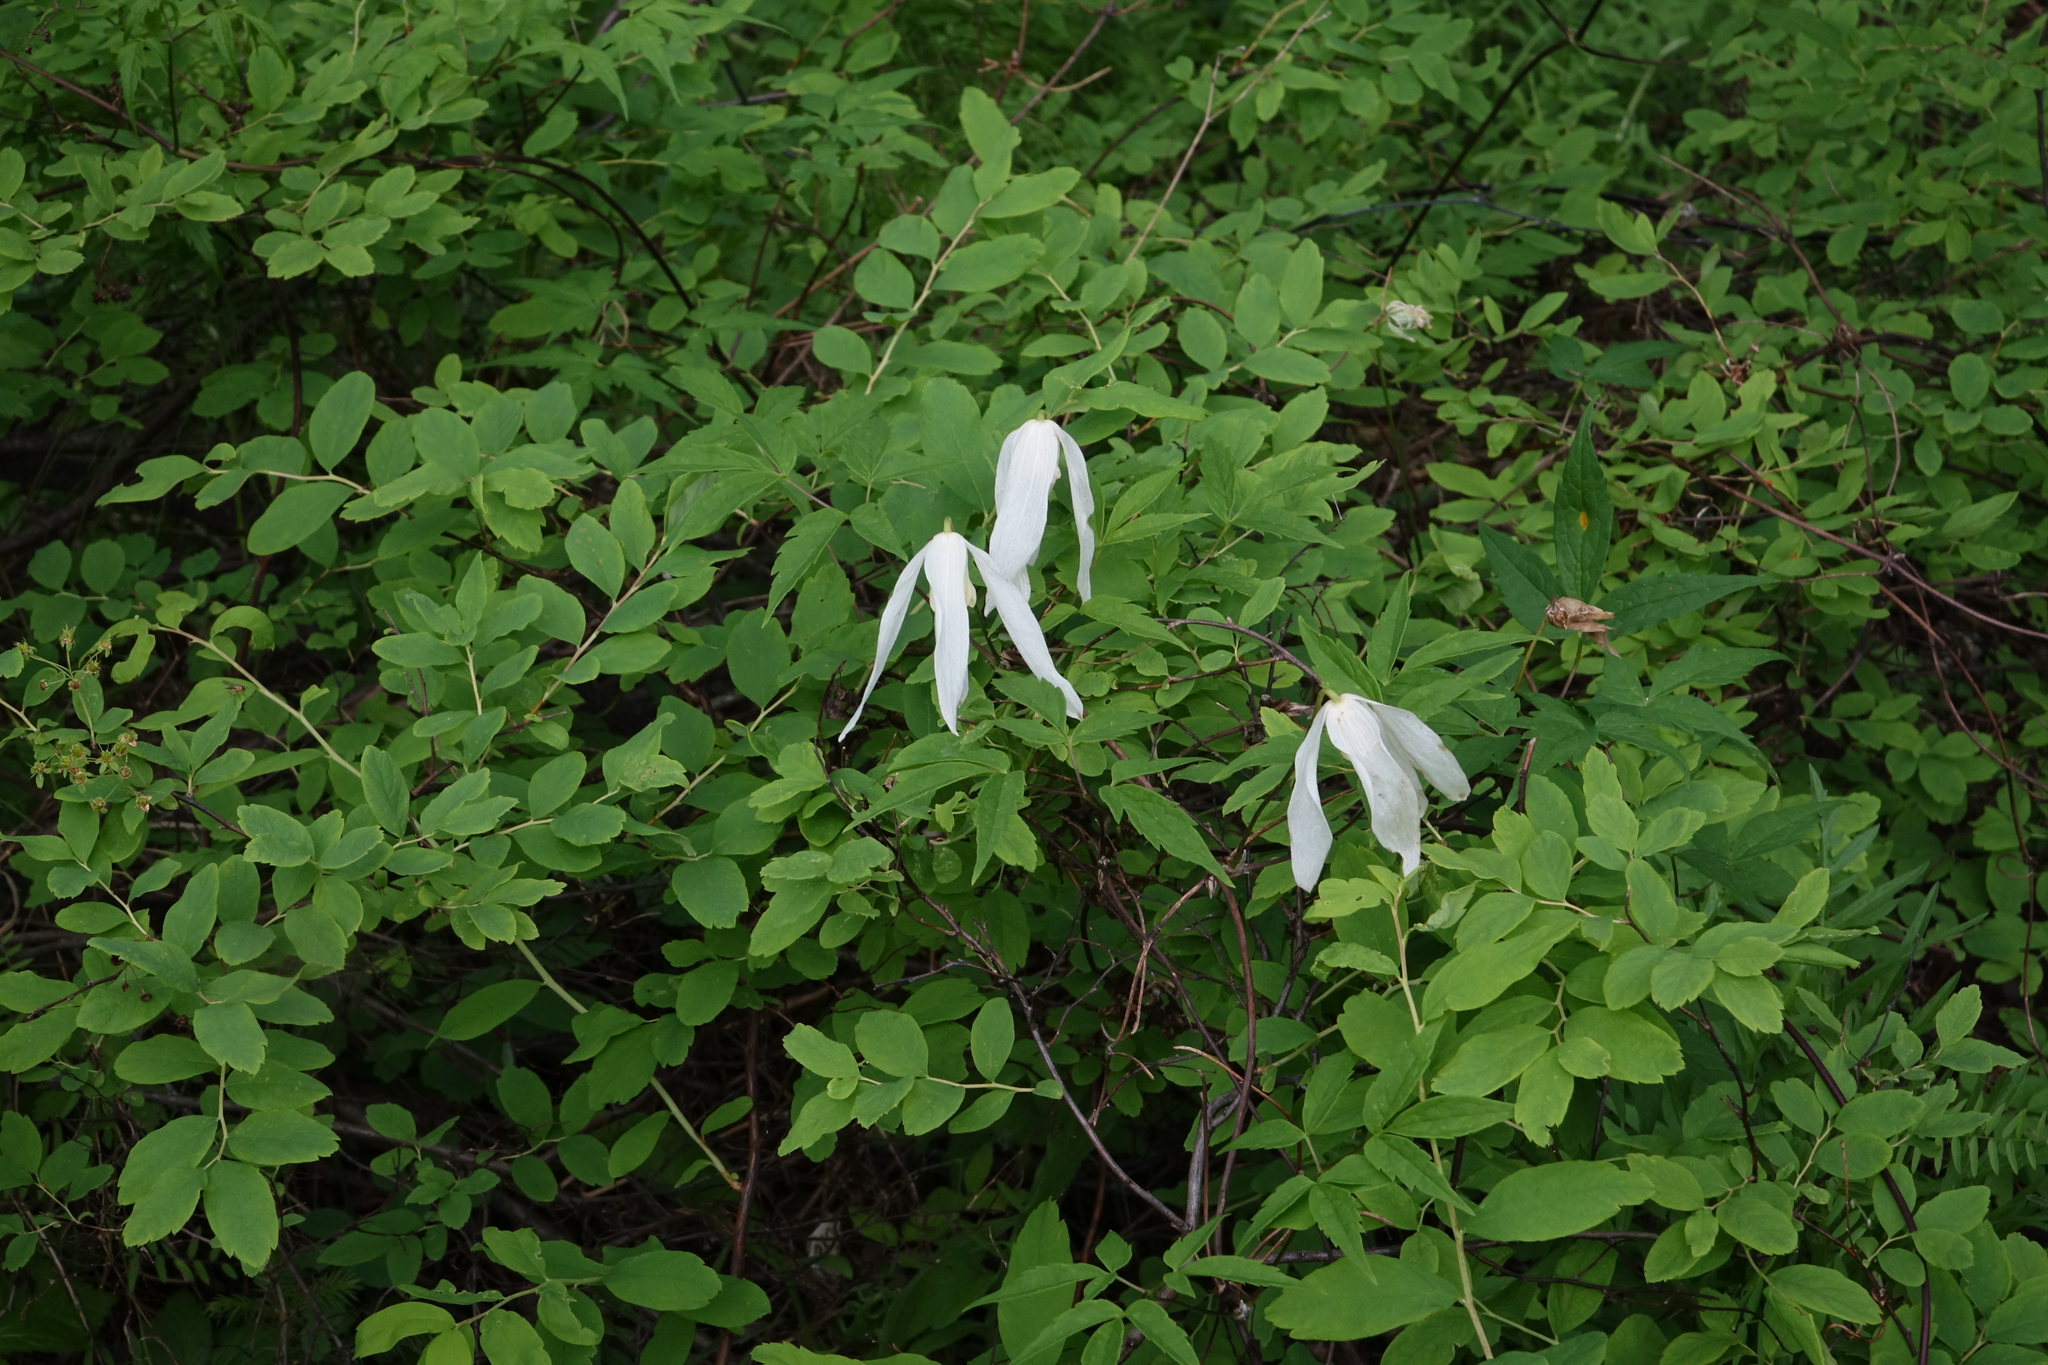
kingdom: Plantae
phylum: Tracheophyta
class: Magnoliopsida
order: Ranunculales
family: Ranunculaceae
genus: Clematis
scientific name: Clematis sibirica
